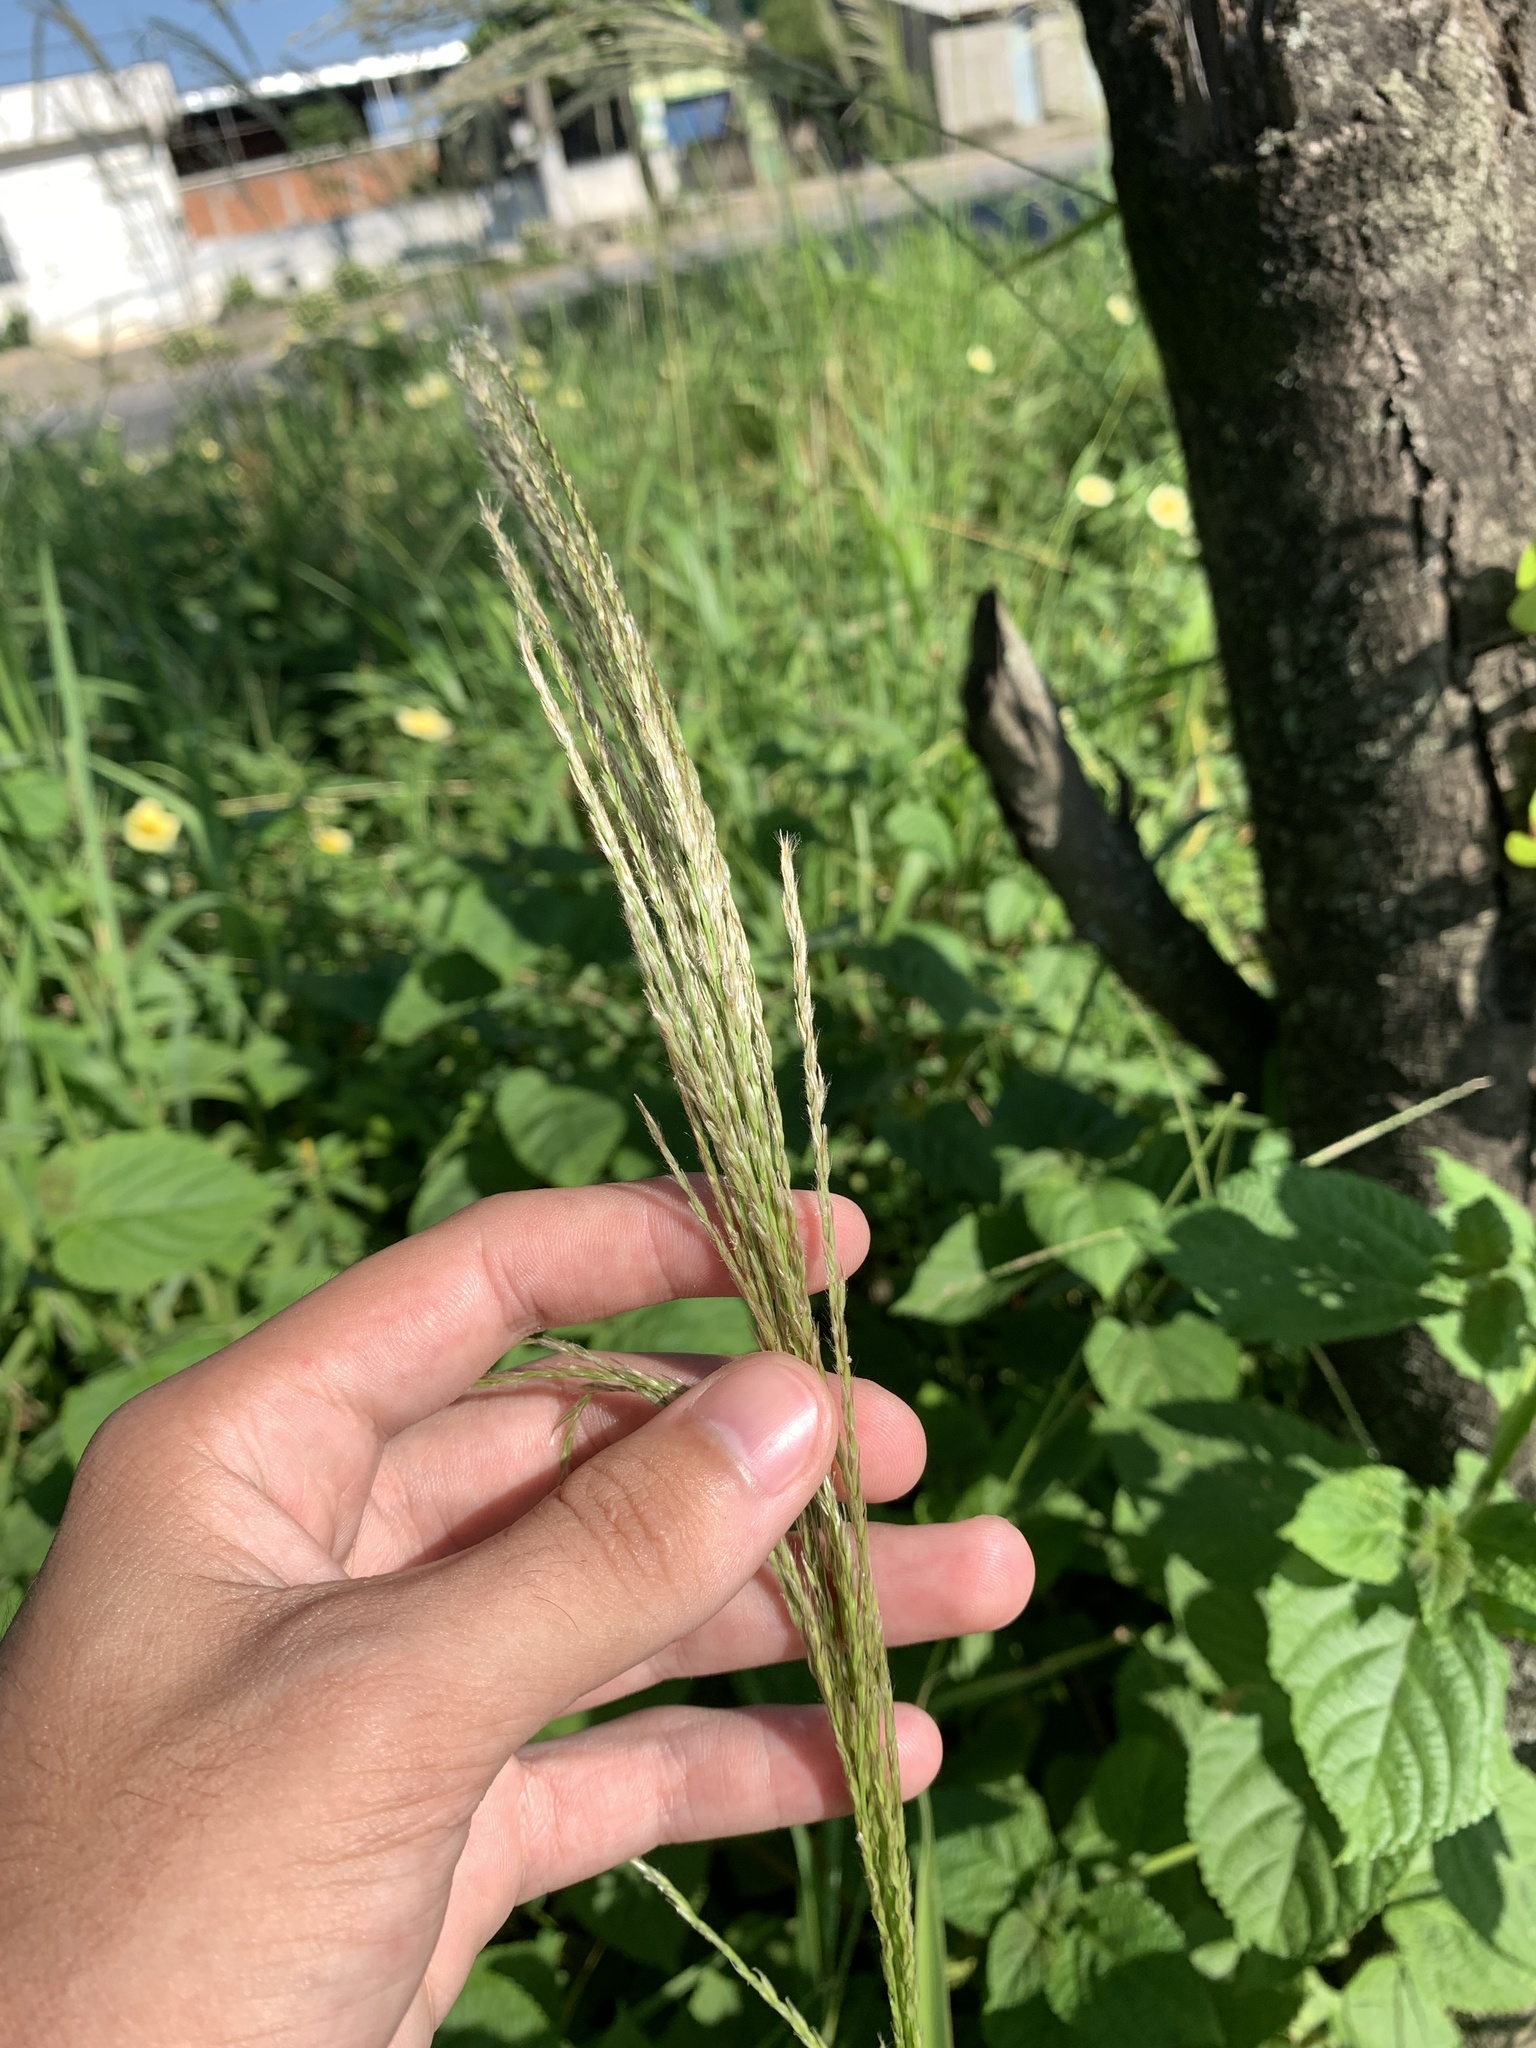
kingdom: Plantae
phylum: Tracheophyta
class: Liliopsida
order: Poales
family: Poaceae
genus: Digitaria
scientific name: Digitaria insularis
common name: Sourgrass
